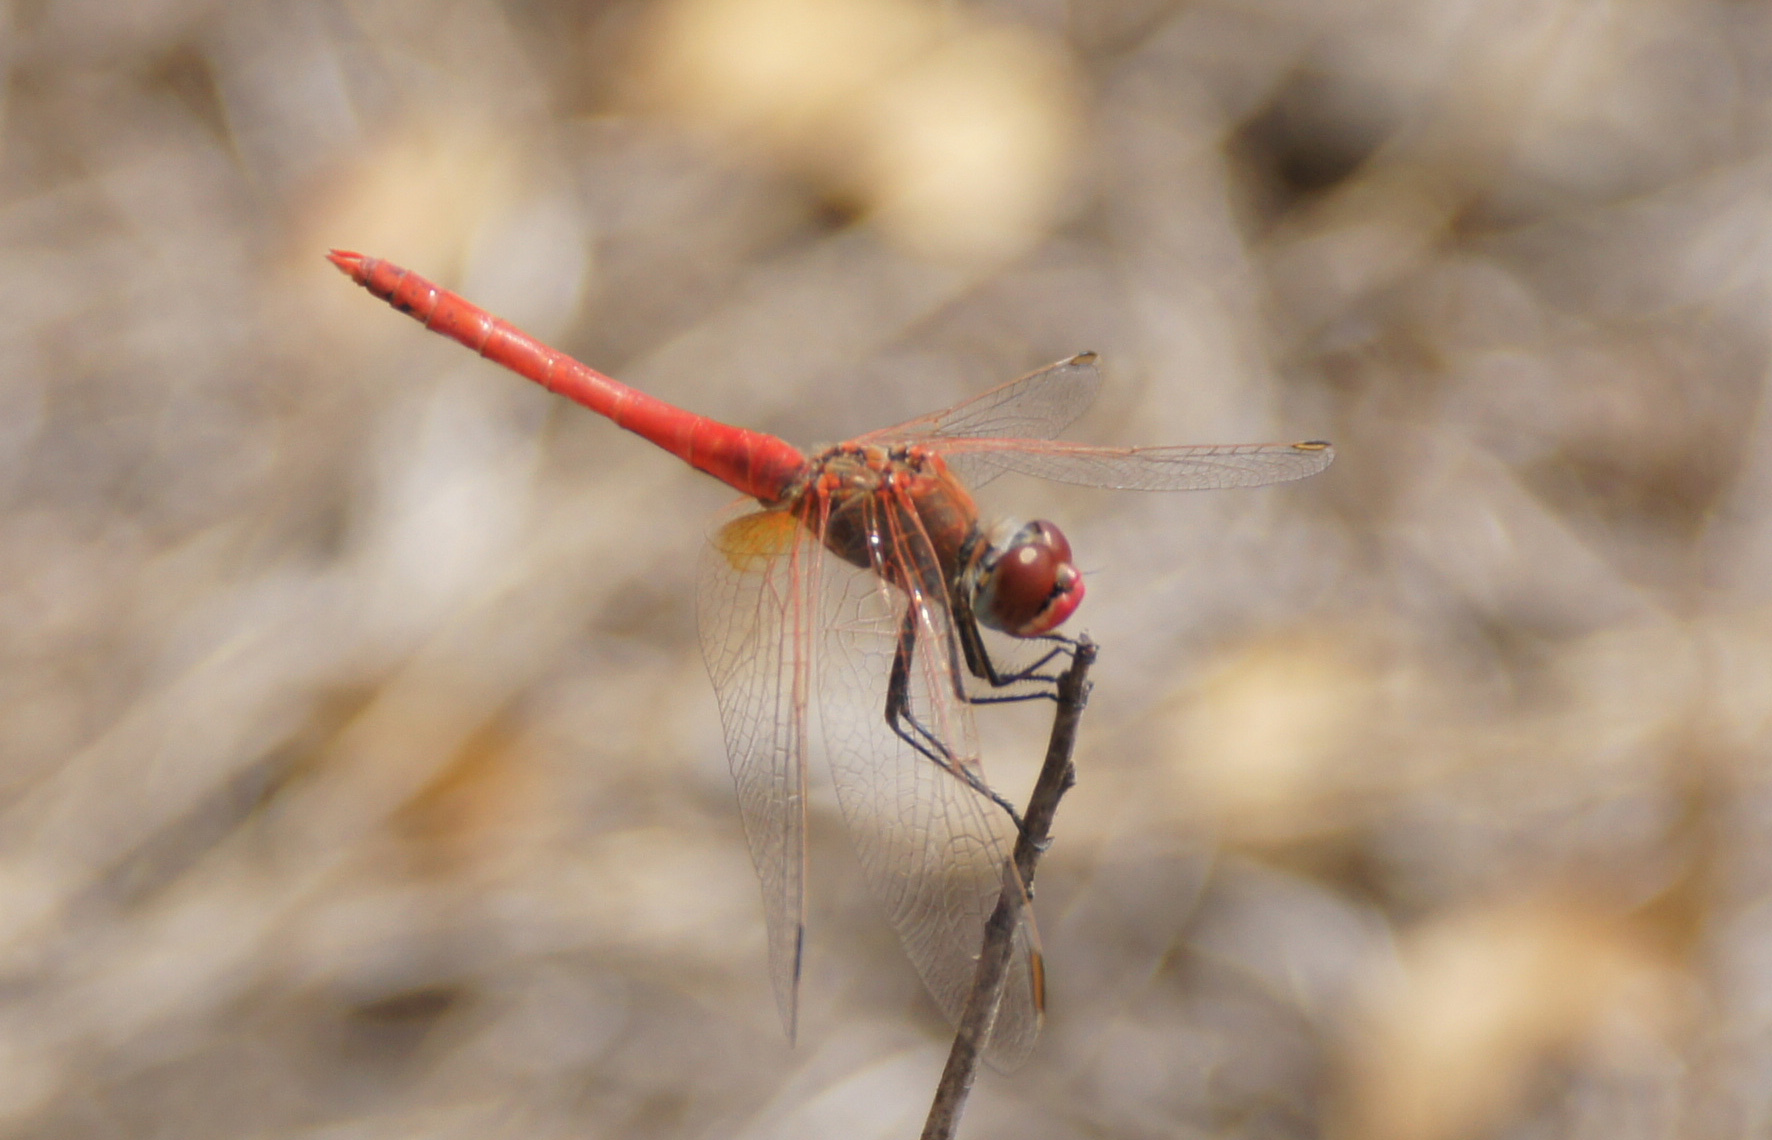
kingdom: Animalia
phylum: Arthropoda
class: Insecta
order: Odonata
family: Libellulidae
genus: Sympetrum
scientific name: Sympetrum fonscolombii
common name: Red-veined darter
